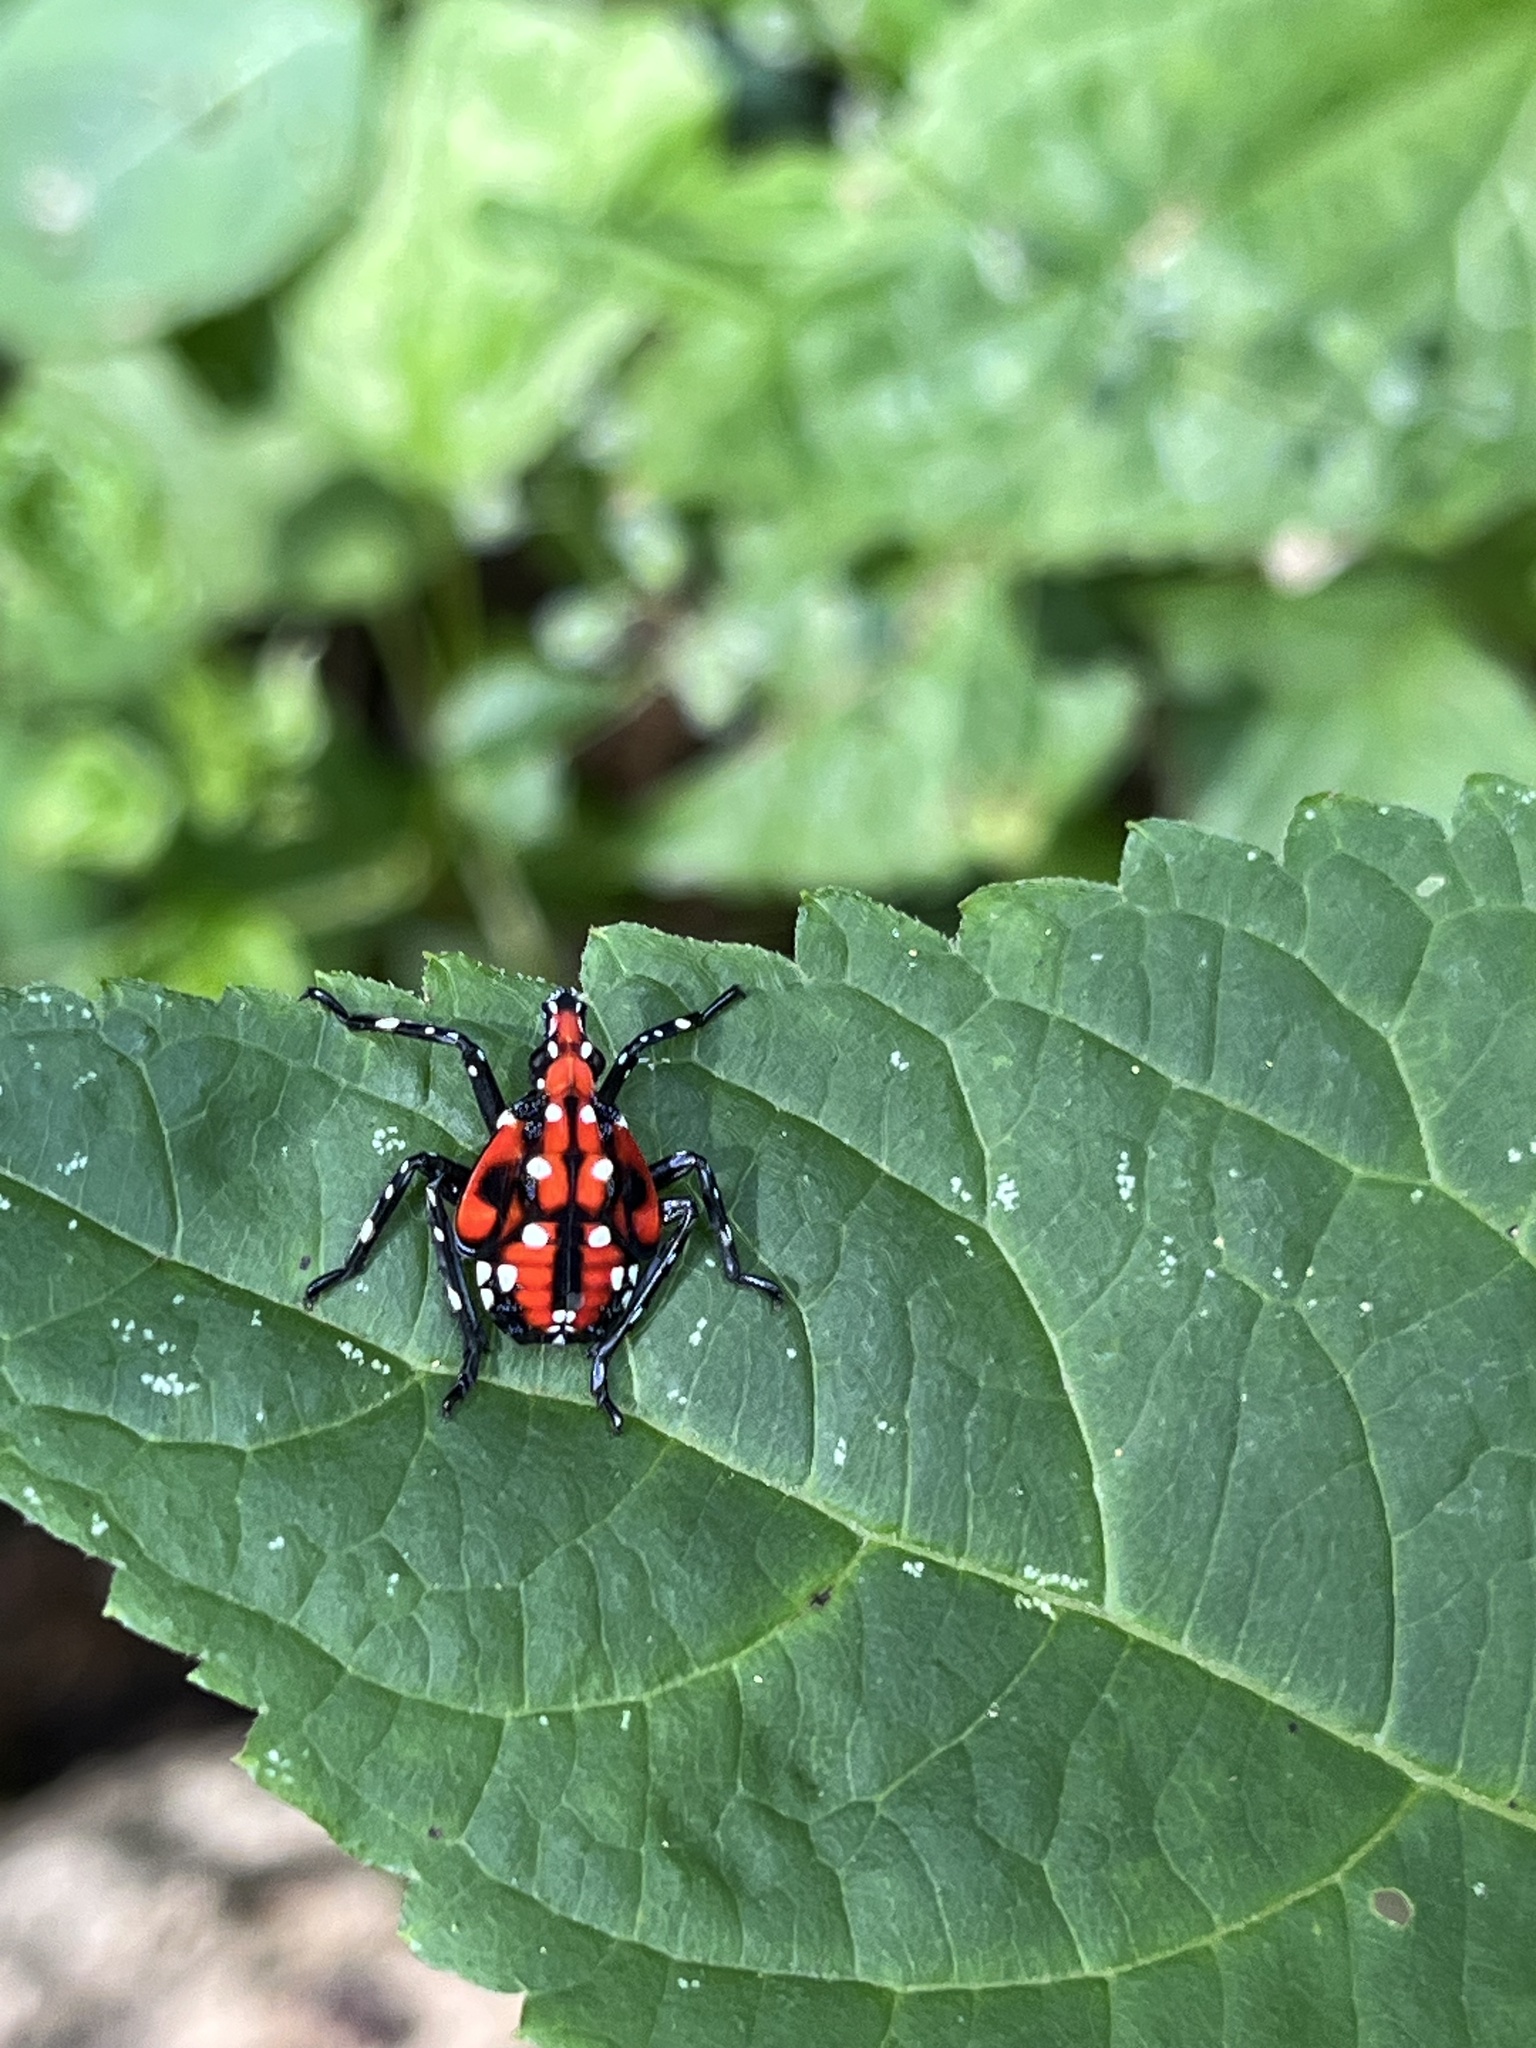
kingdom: Animalia
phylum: Arthropoda
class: Insecta
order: Hemiptera
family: Fulgoridae
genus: Lycorma
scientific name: Lycorma delicatula
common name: Spotted lanternfly
